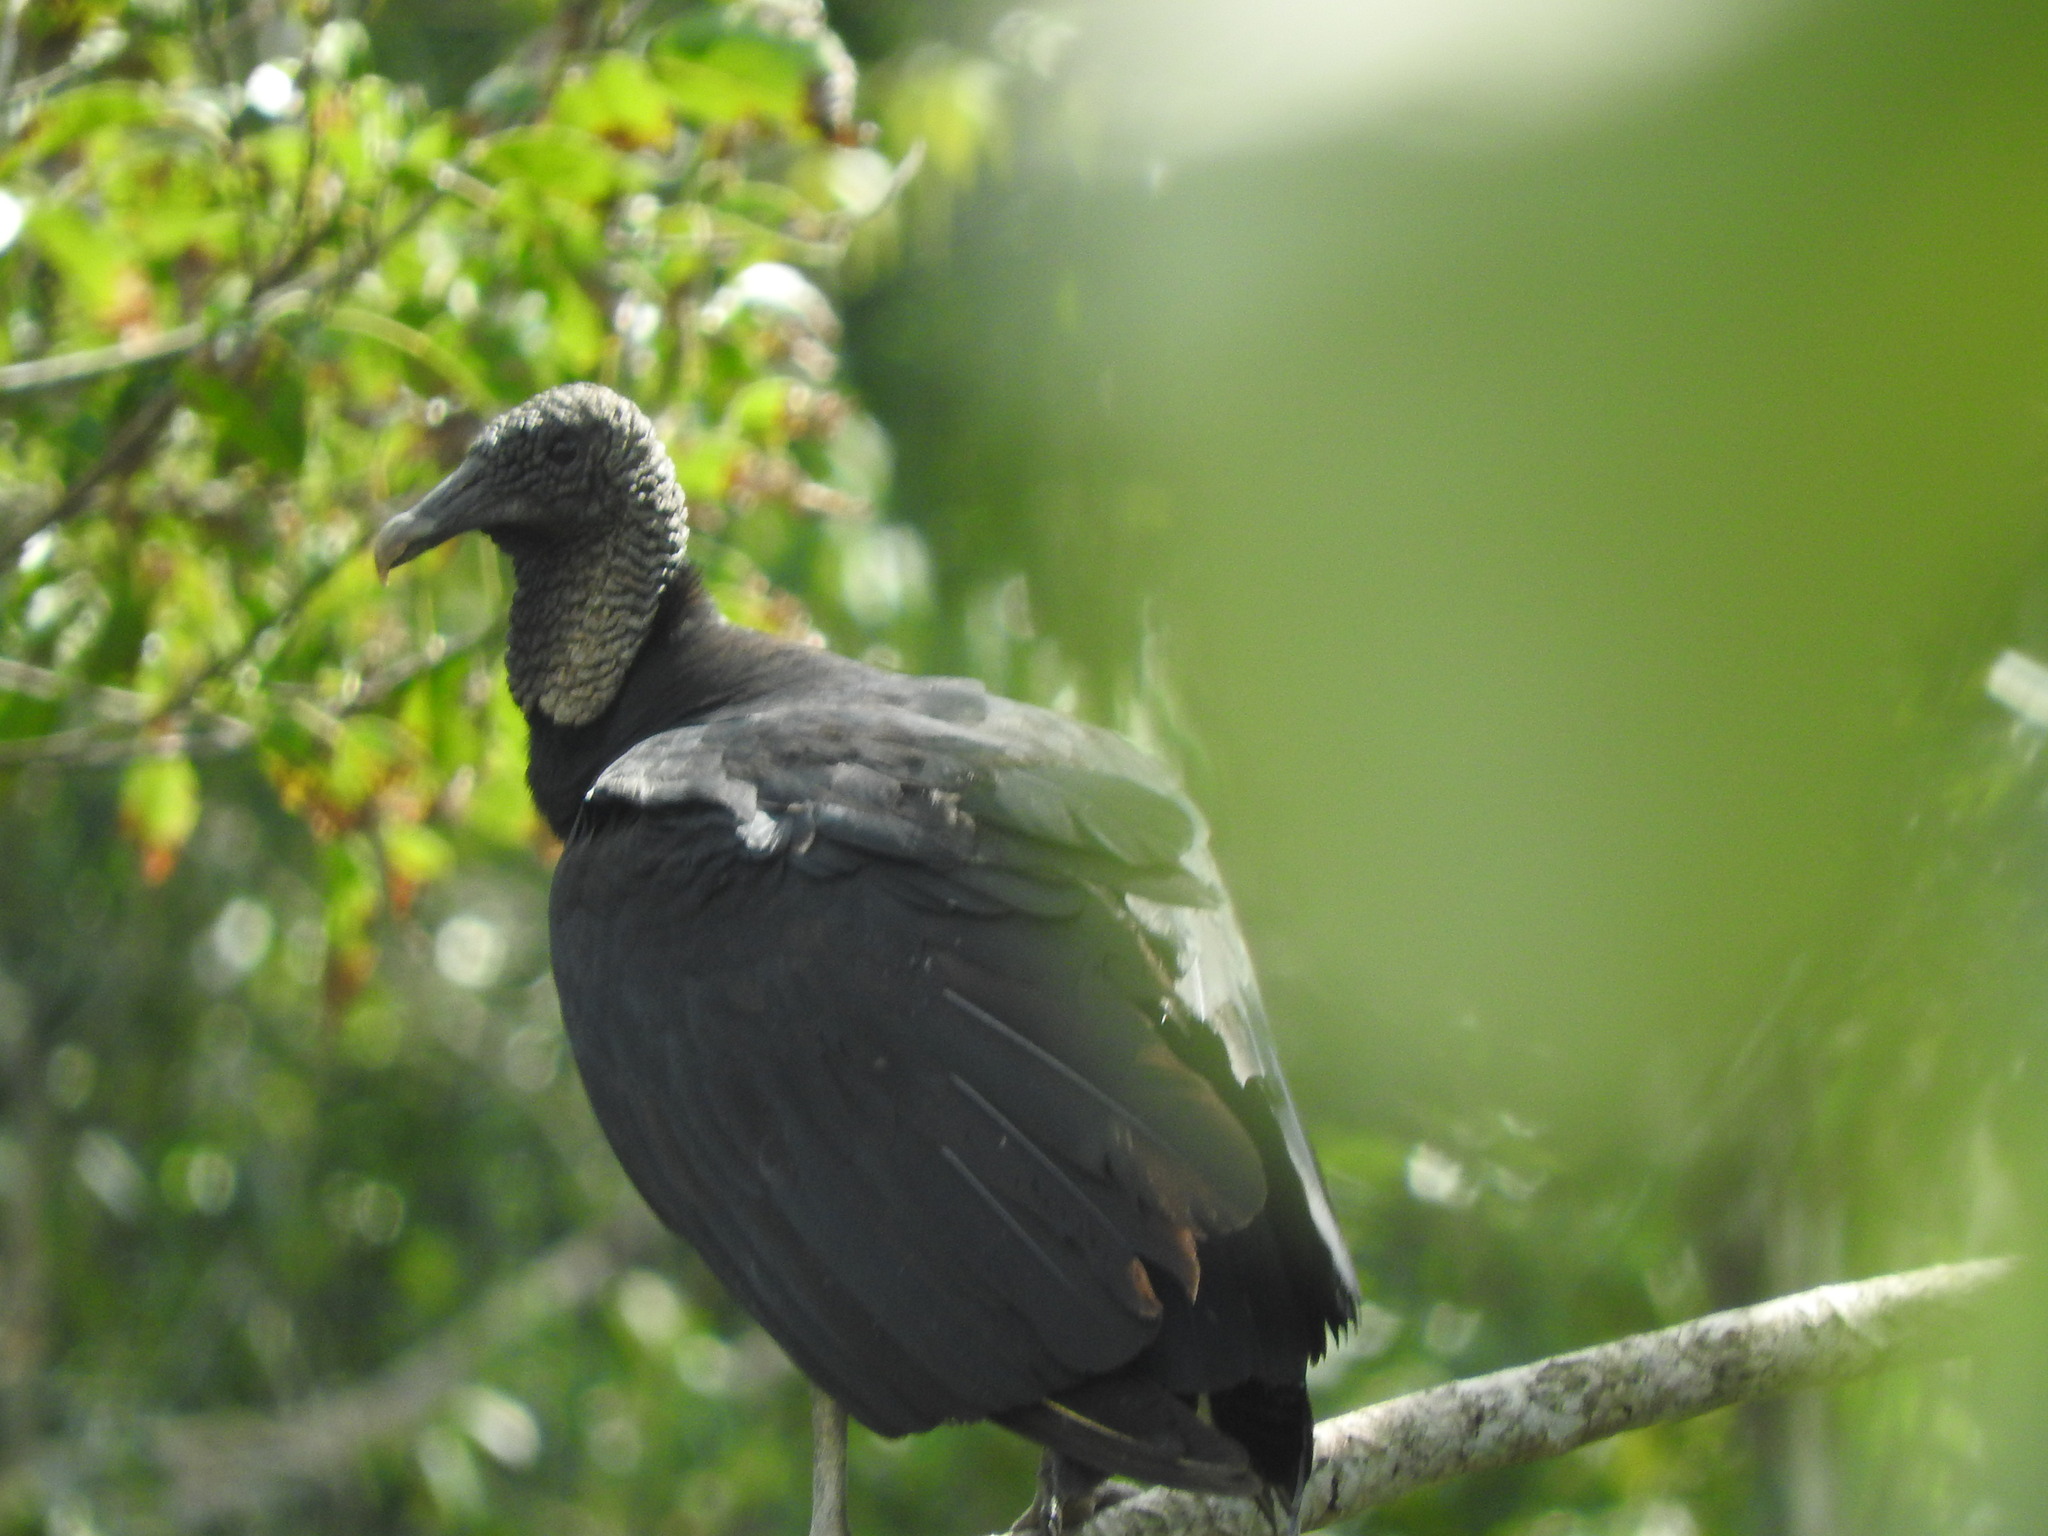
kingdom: Animalia
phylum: Chordata
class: Aves
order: Accipitriformes
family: Cathartidae
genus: Coragyps
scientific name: Coragyps atratus
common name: Black vulture
